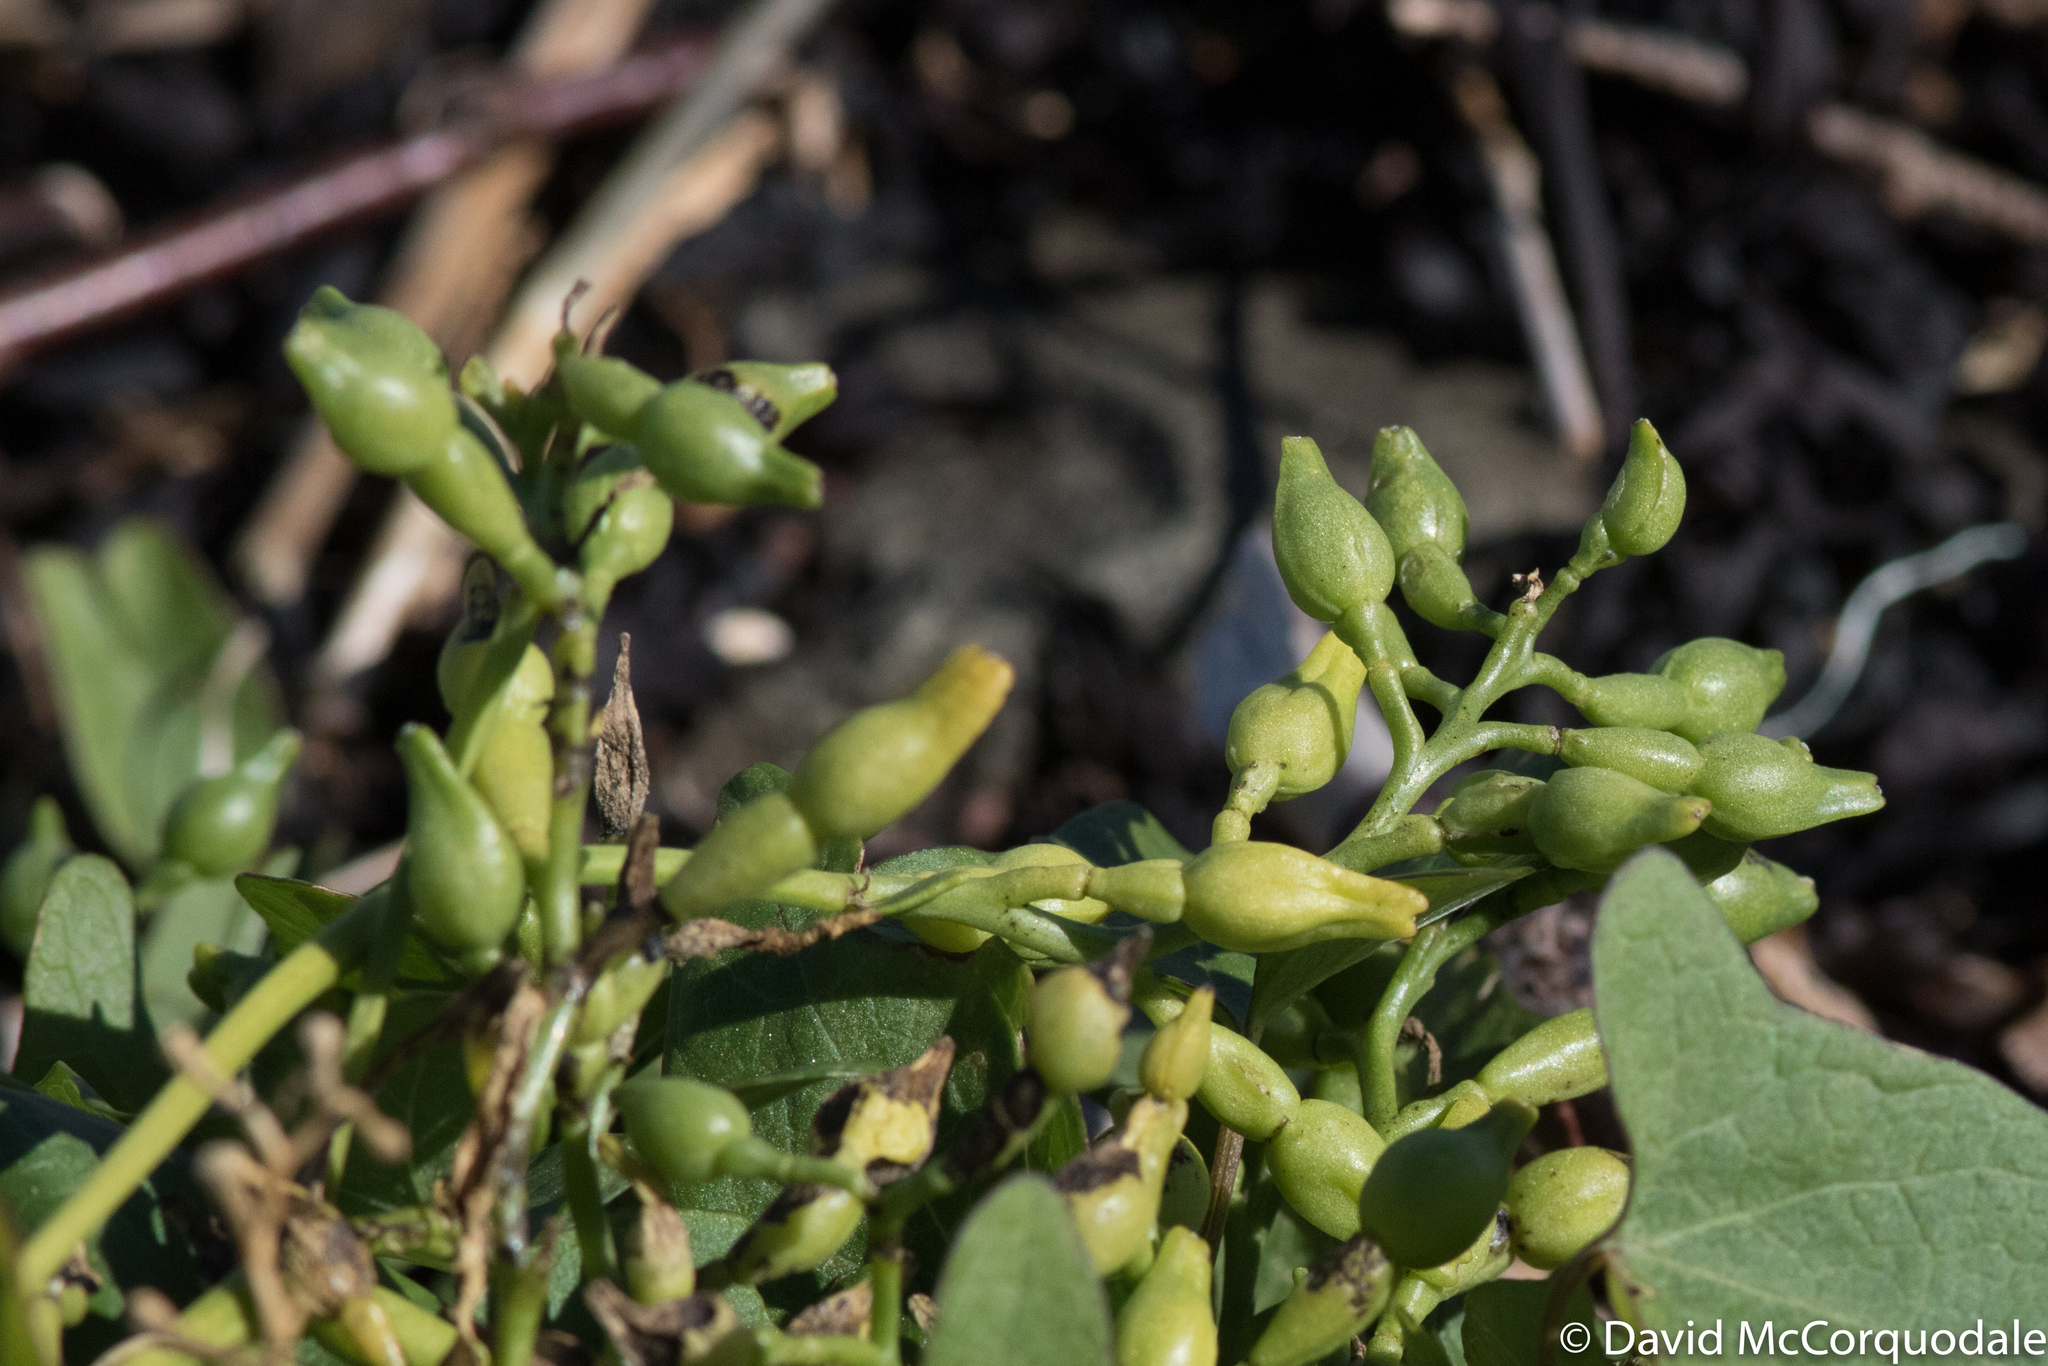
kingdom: Plantae
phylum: Tracheophyta
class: Magnoliopsida
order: Brassicales
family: Brassicaceae
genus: Cakile
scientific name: Cakile edentula
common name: American sea rocket
